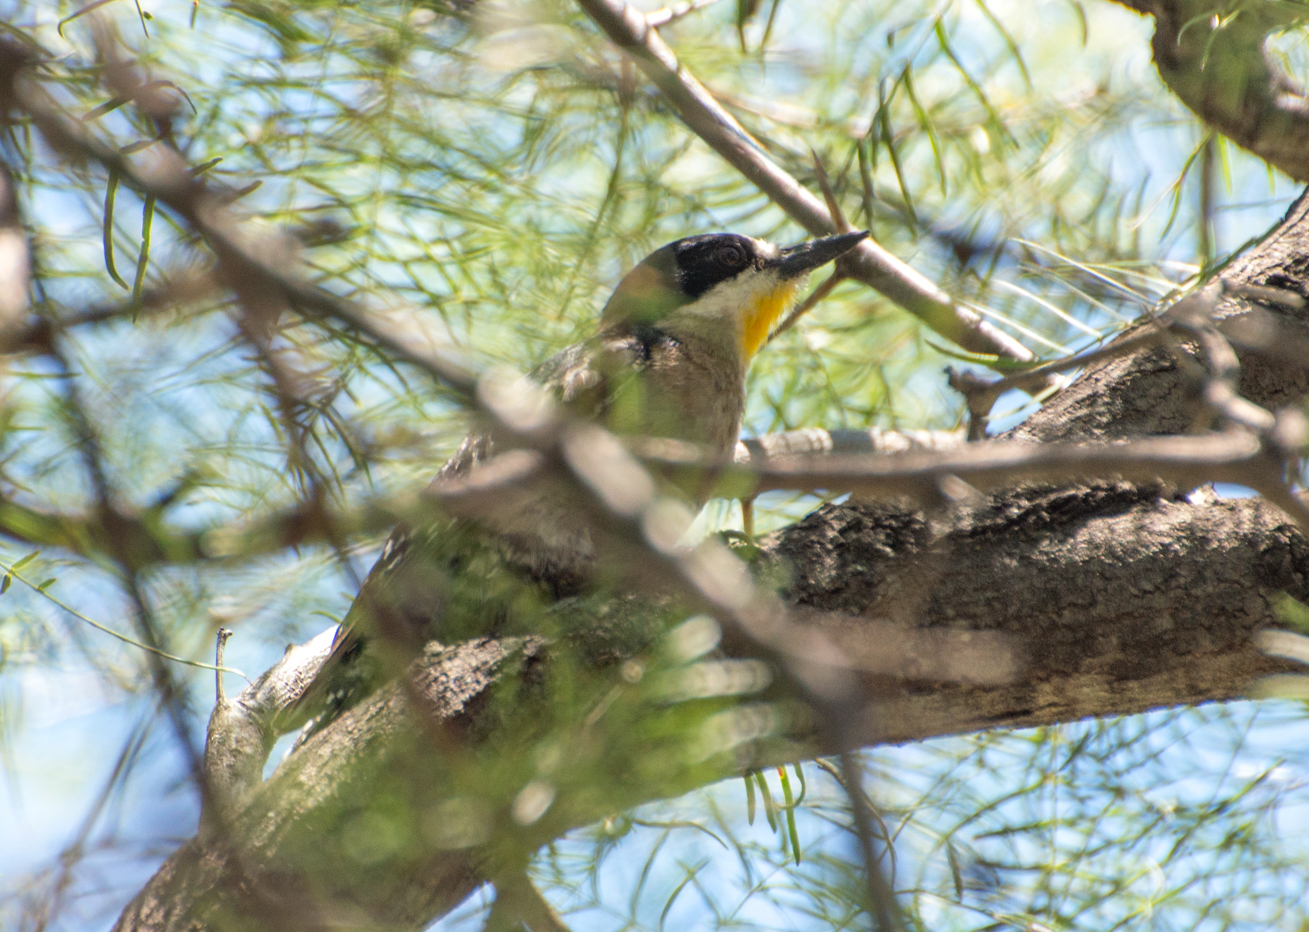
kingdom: Animalia
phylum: Chordata
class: Aves
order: Piciformes
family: Picidae
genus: Melanerpes
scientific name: Melanerpes cactorum
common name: White-fronted woodpecker
